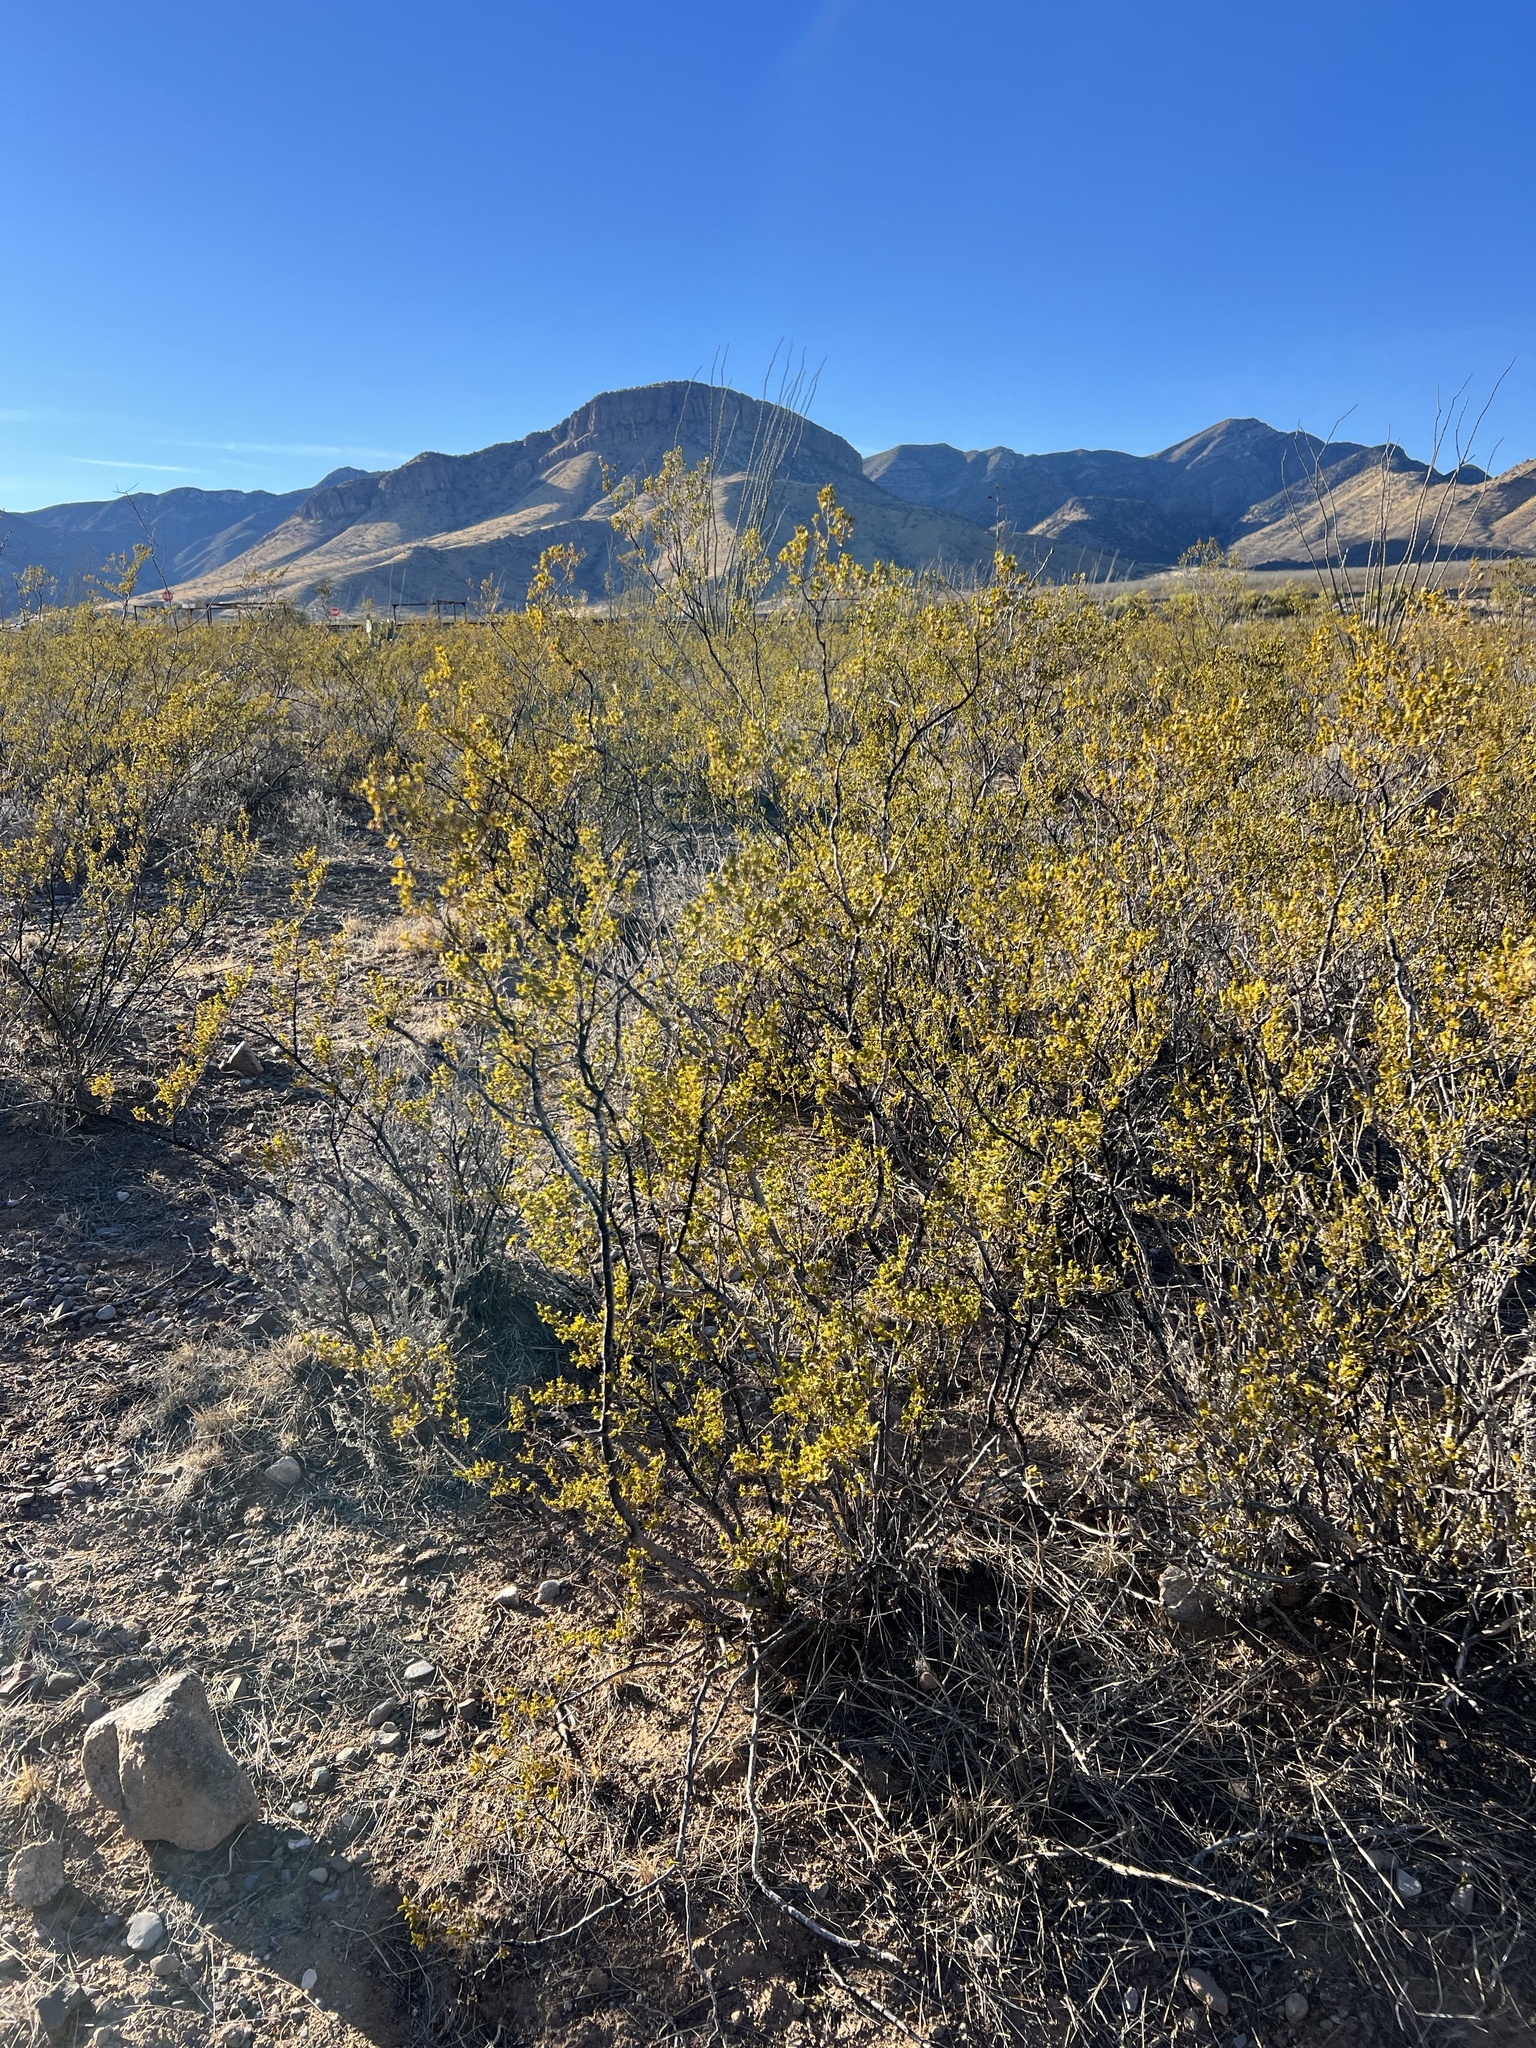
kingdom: Plantae
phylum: Tracheophyta
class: Magnoliopsida
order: Zygophyllales
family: Zygophyllaceae
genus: Larrea
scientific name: Larrea tridentata
